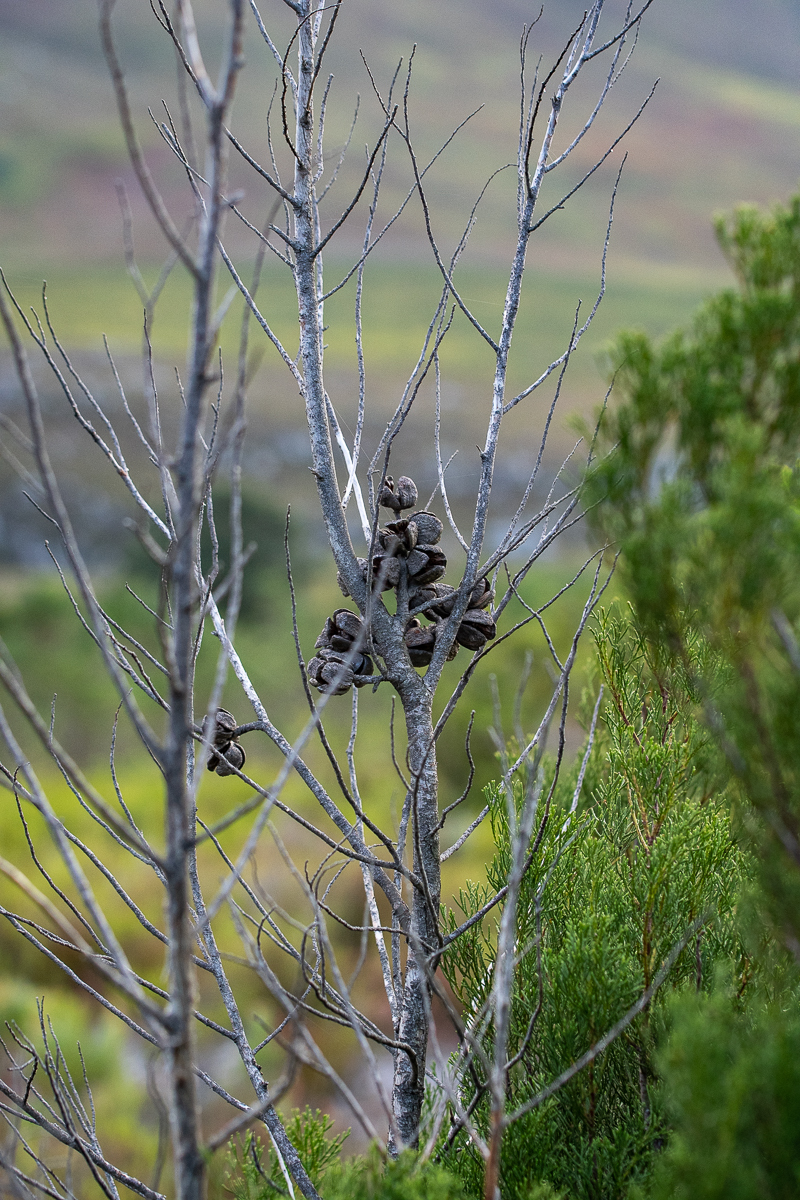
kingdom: Plantae
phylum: Tracheophyta
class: Pinopsida
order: Pinales
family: Cupressaceae
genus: Widdringtonia
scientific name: Widdringtonia nodiflora
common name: Cape cypress
